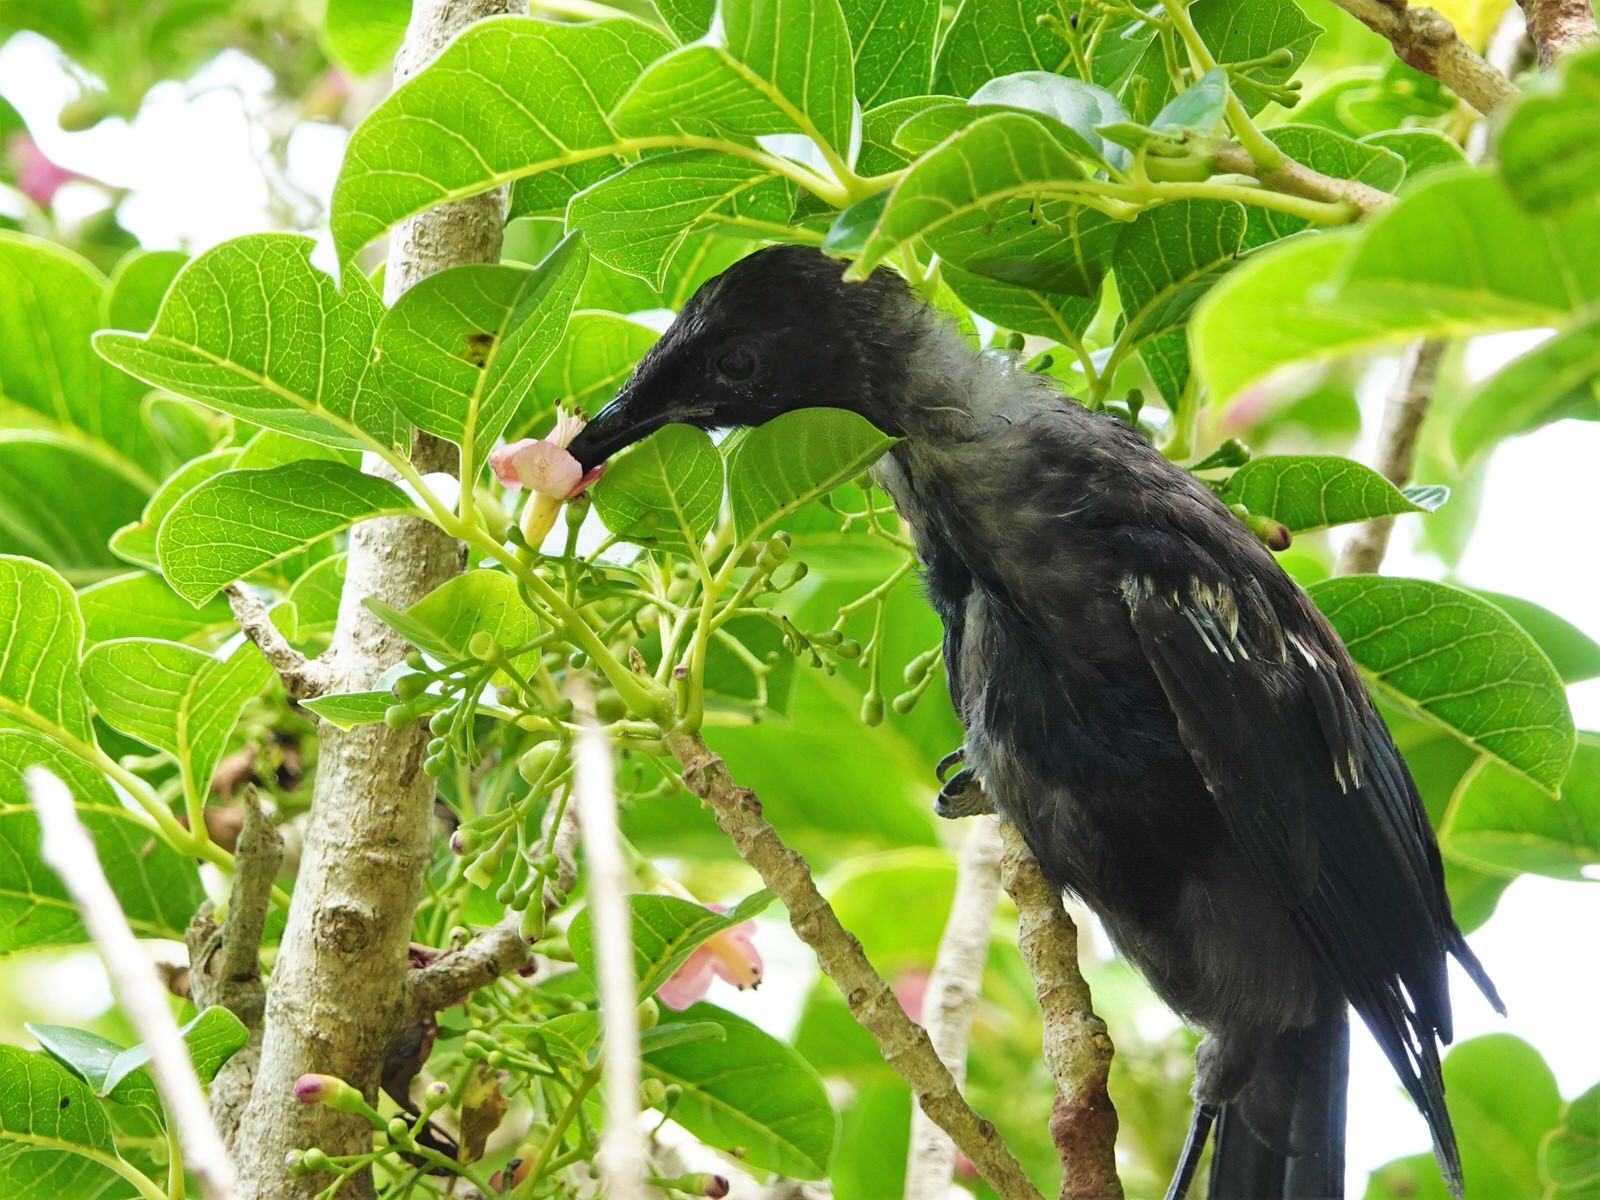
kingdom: Animalia
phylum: Chordata
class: Aves
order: Passeriformes
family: Meliphagidae
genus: Prosthemadera
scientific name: Prosthemadera novaeseelandiae
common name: Tui
